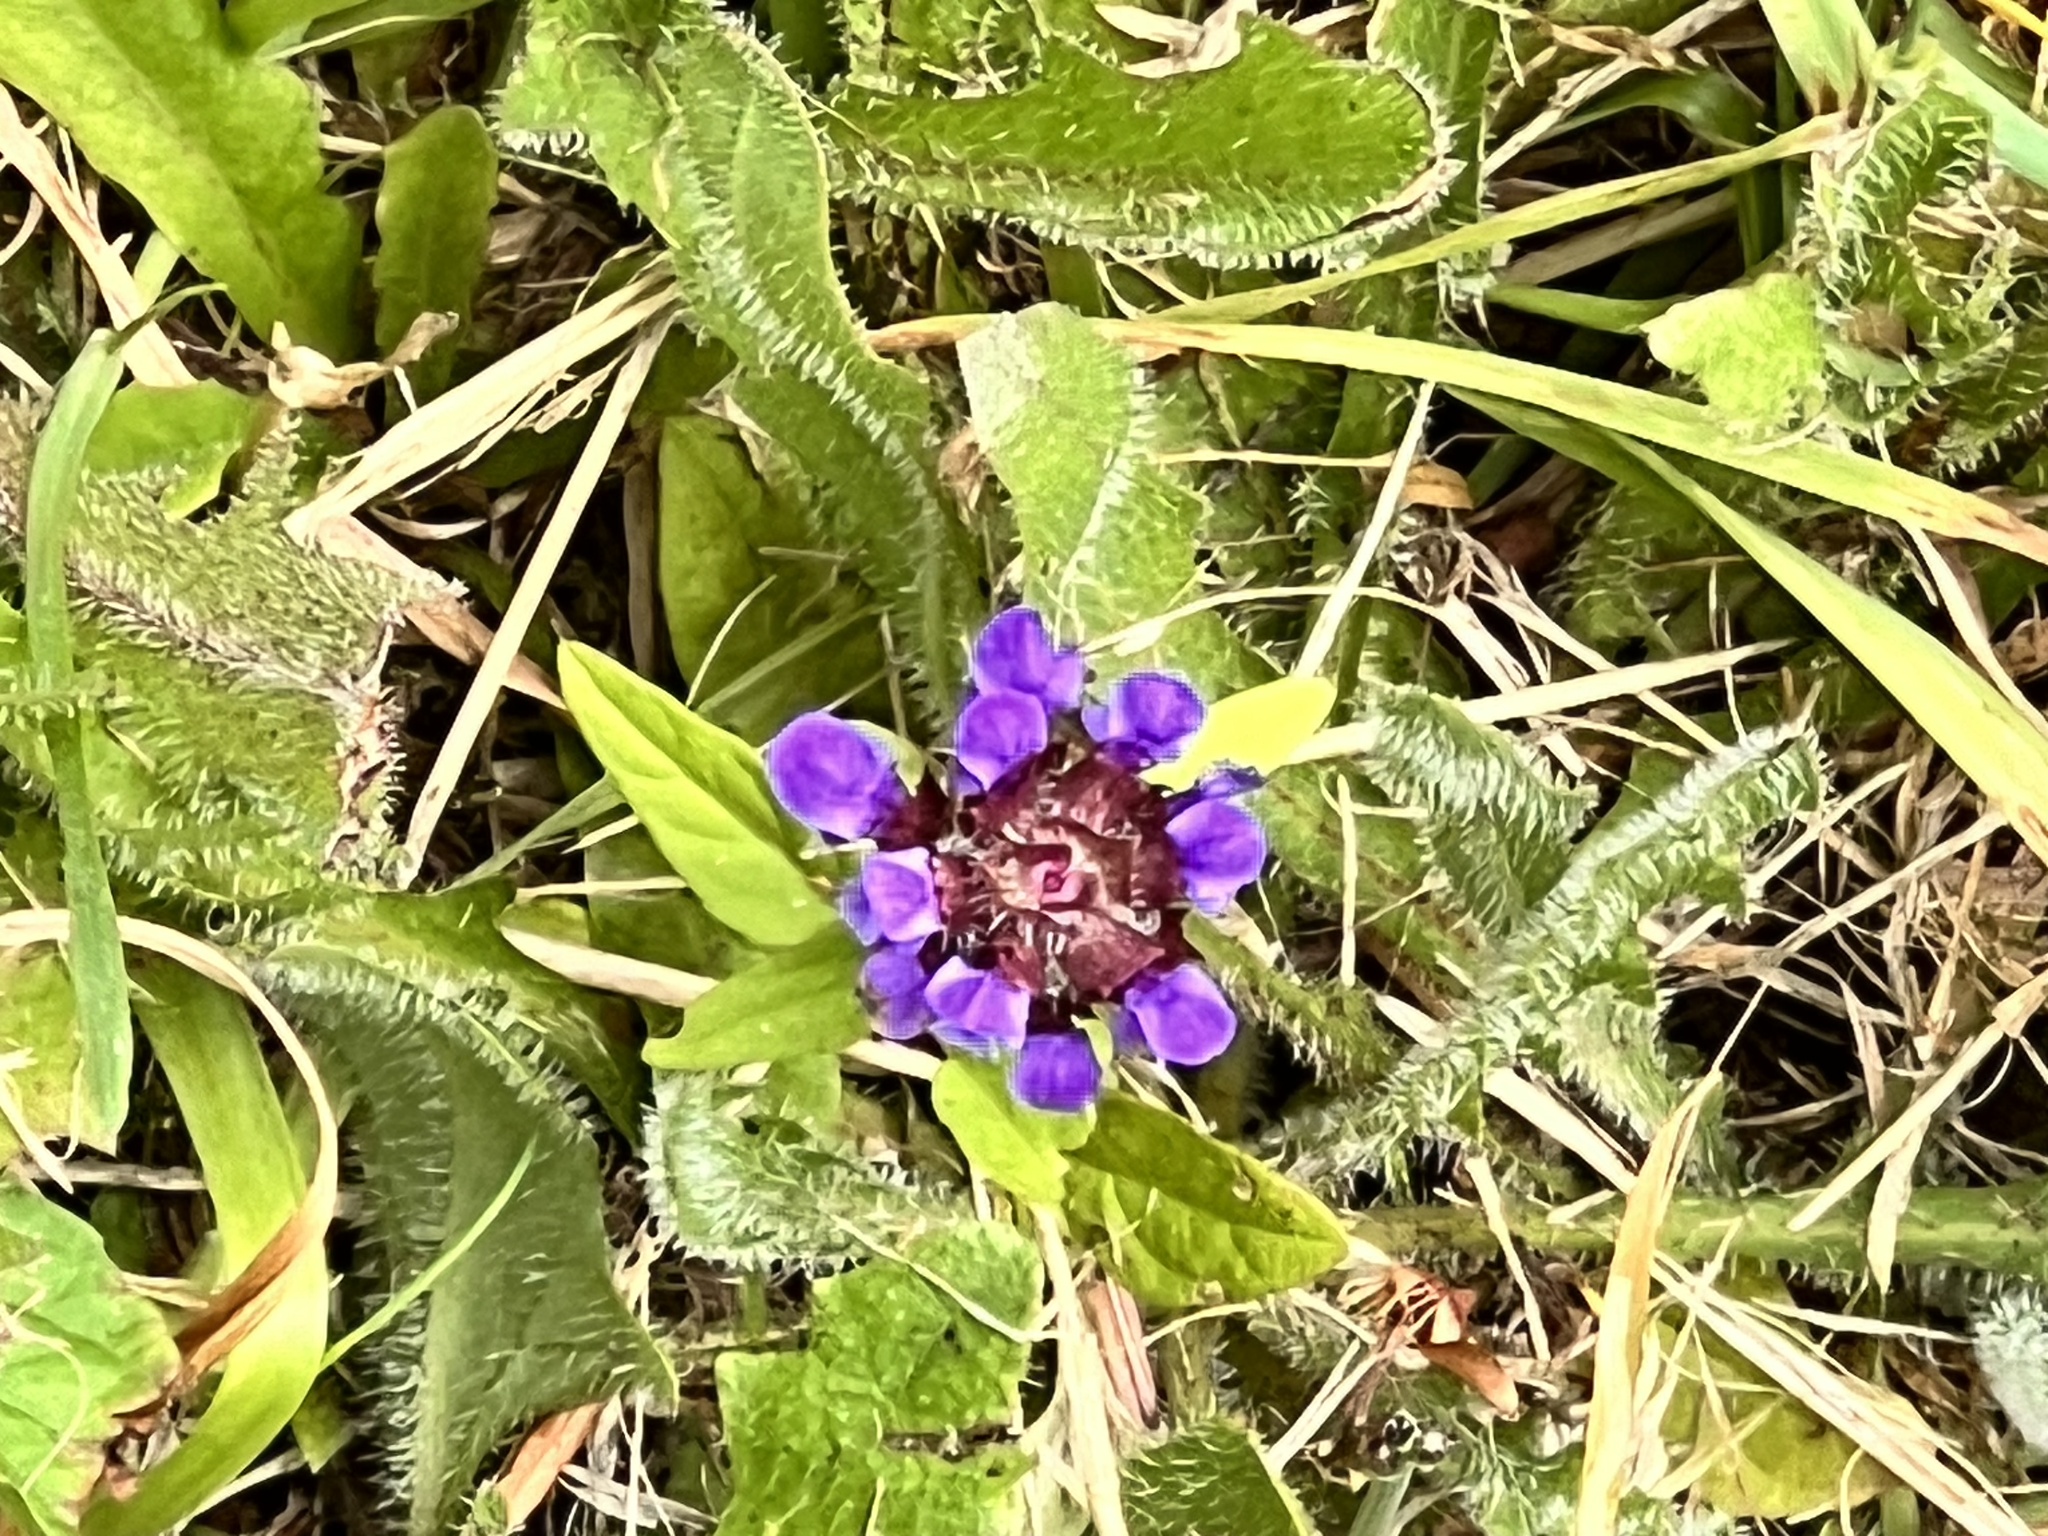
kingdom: Plantae
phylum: Tracheophyta
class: Magnoliopsida
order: Lamiales
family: Lamiaceae
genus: Prunella
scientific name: Prunella vulgaris
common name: Heal-all
